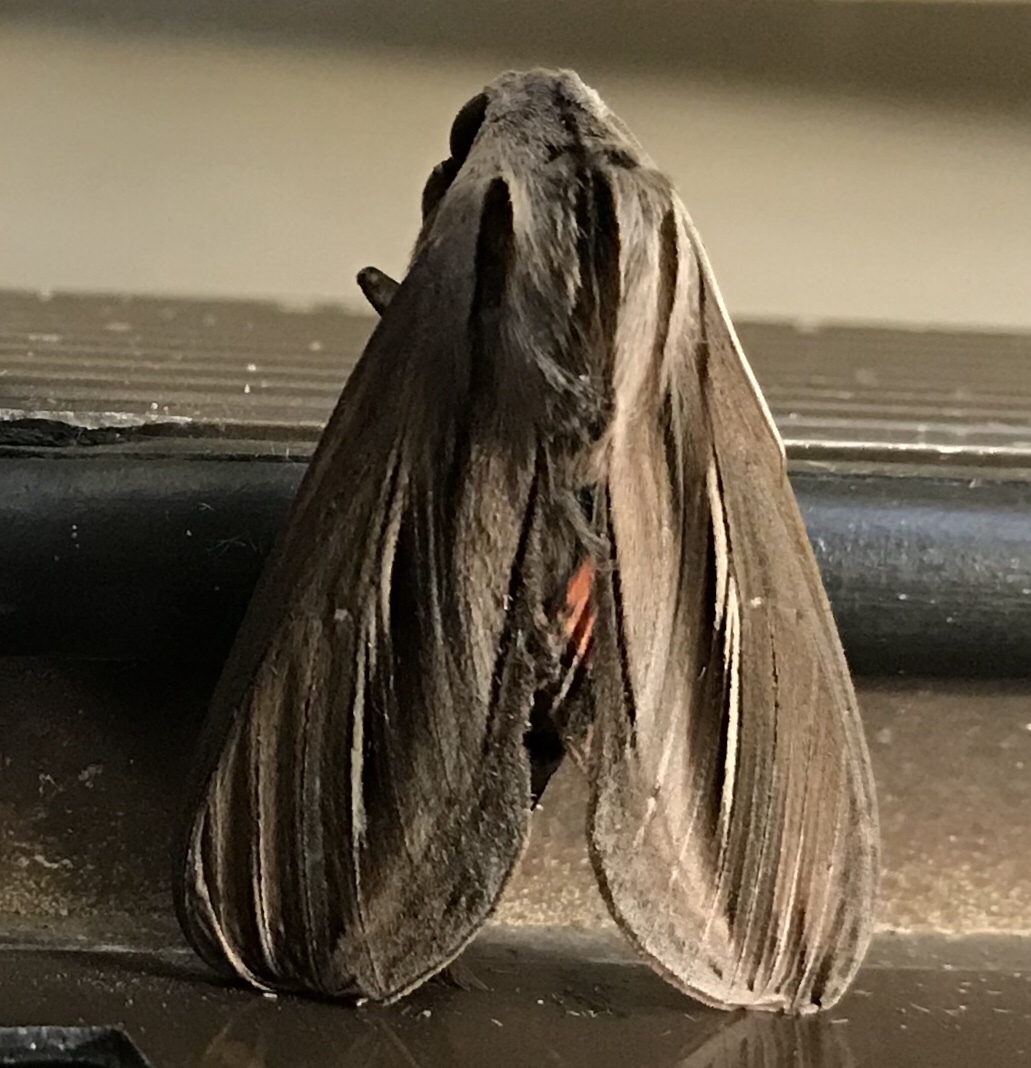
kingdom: Animalia
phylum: Arthropoda
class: Insecta
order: Lepidoptera
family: Sphingidae
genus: Phryxus
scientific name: Phryxus caicus
